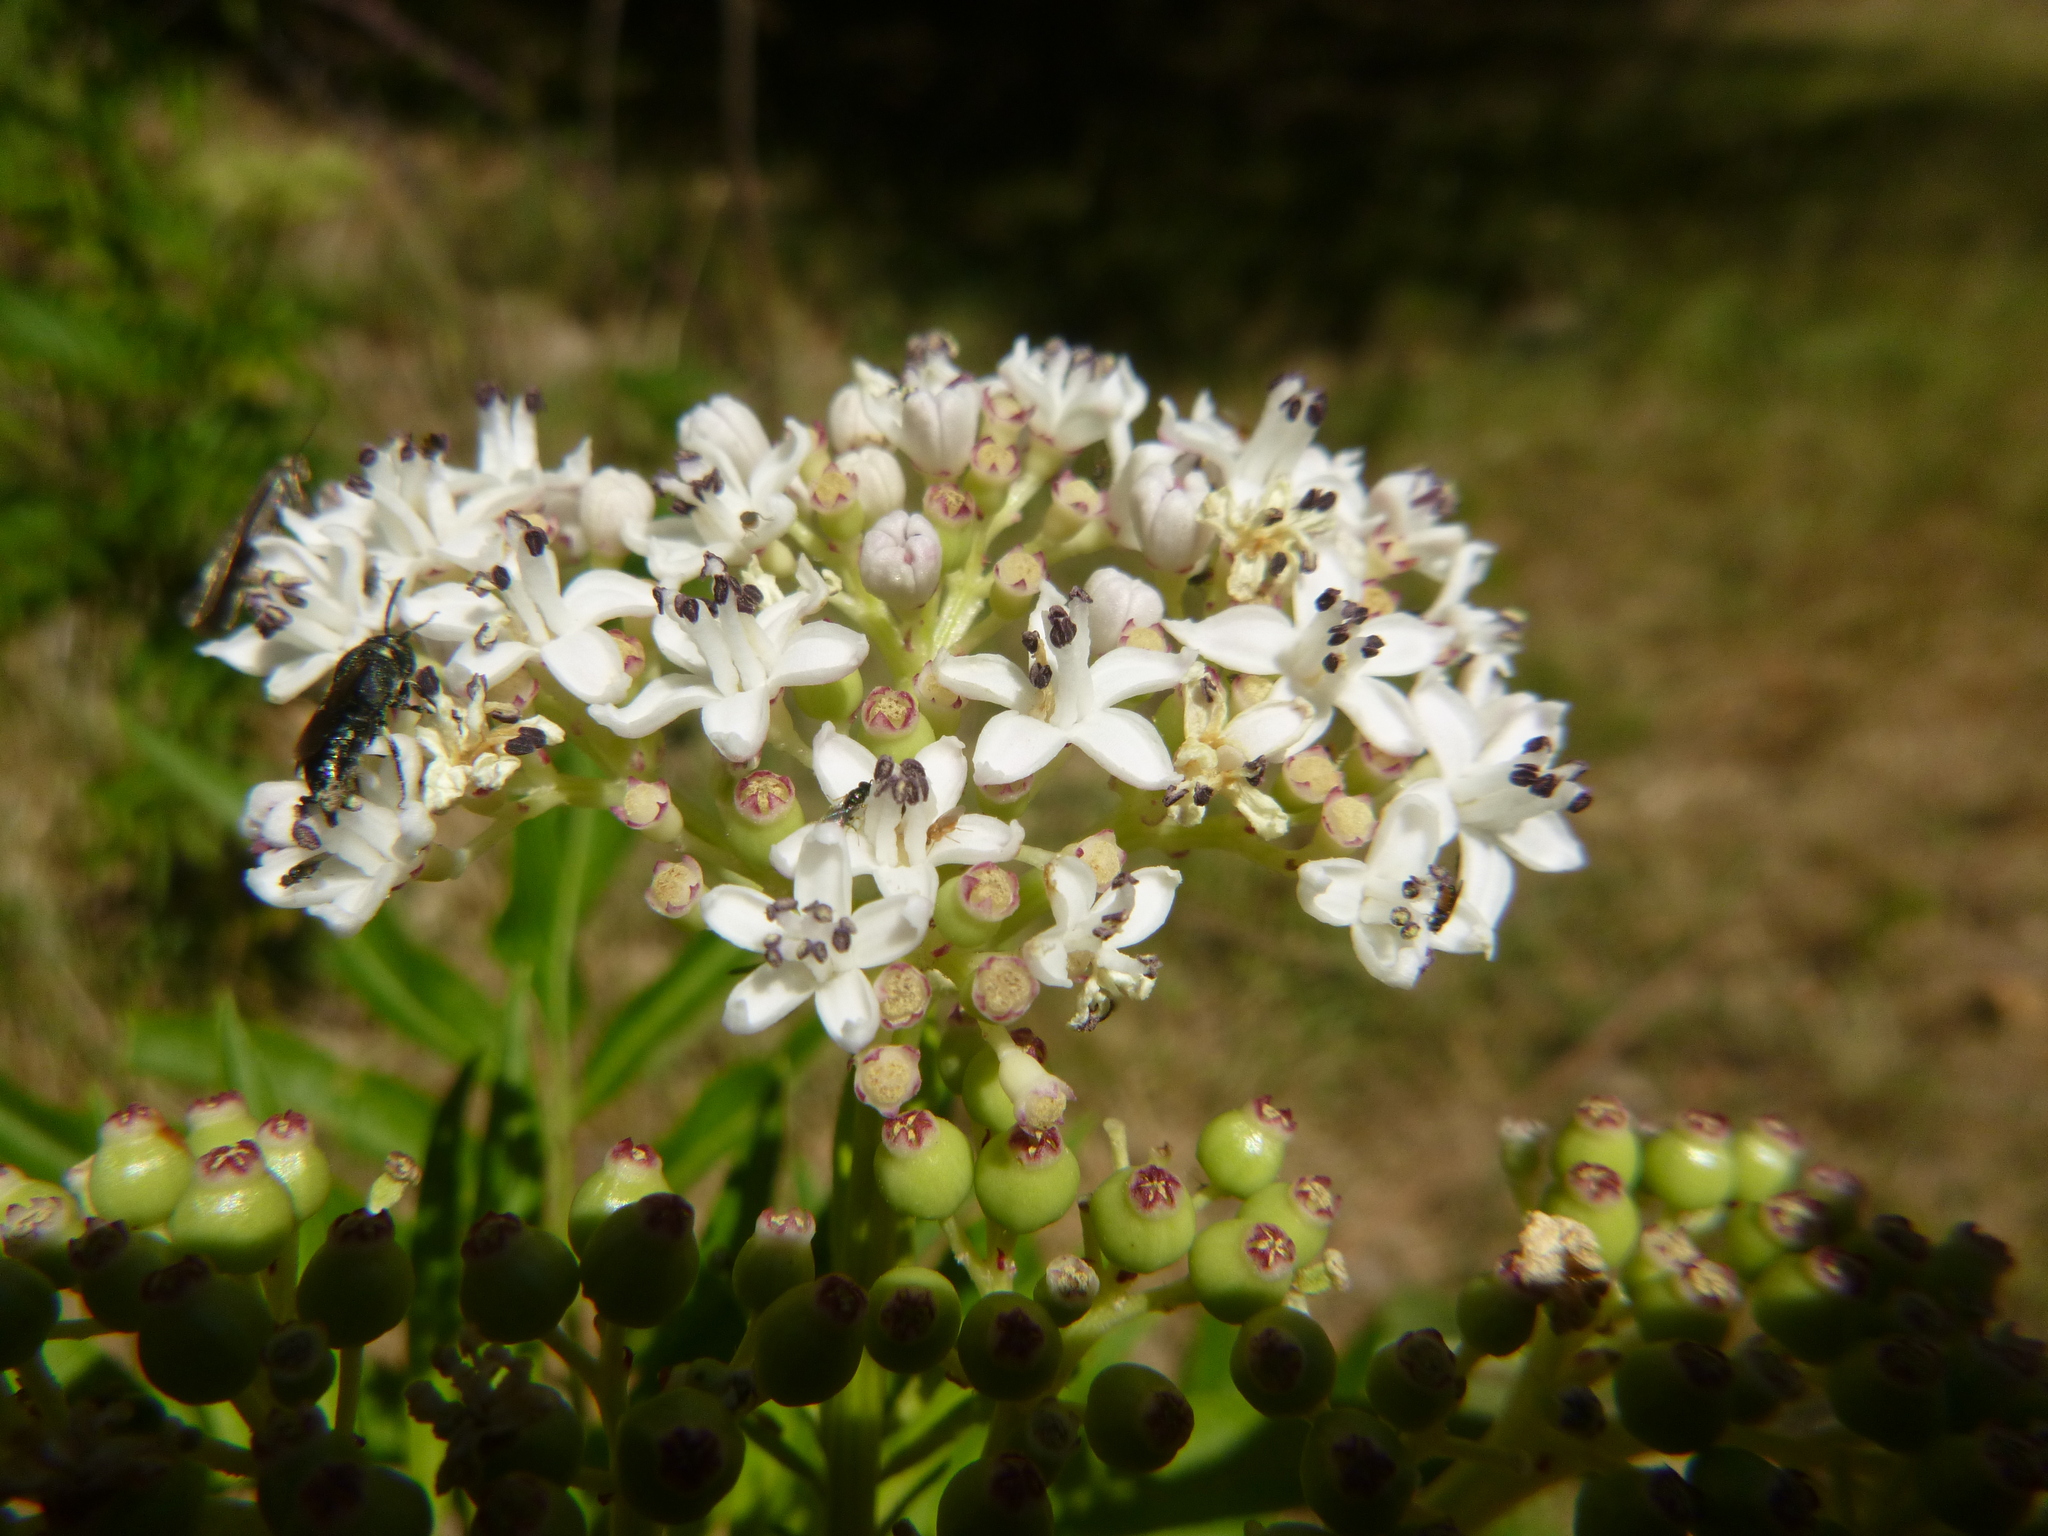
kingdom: Plantae
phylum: Tracheophyta
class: Magnoliopsida
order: Dipsacales
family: Viburnaceae
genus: Sambucus
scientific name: Sambucus ebulus
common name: Dwarf elder
